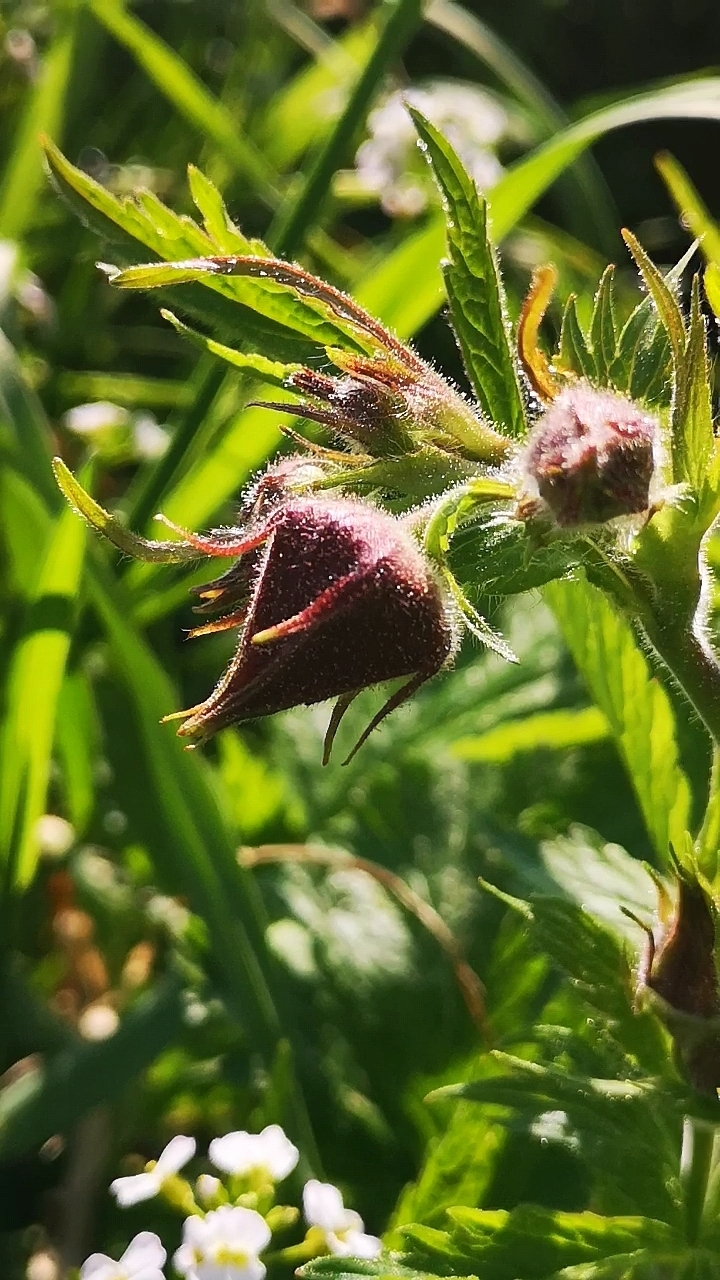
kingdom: Plantae
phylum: Tracheophyta
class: Magnoliopsida
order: Rosales
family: Rosaceae
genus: Geum
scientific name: Geum rivale
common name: Water avens
